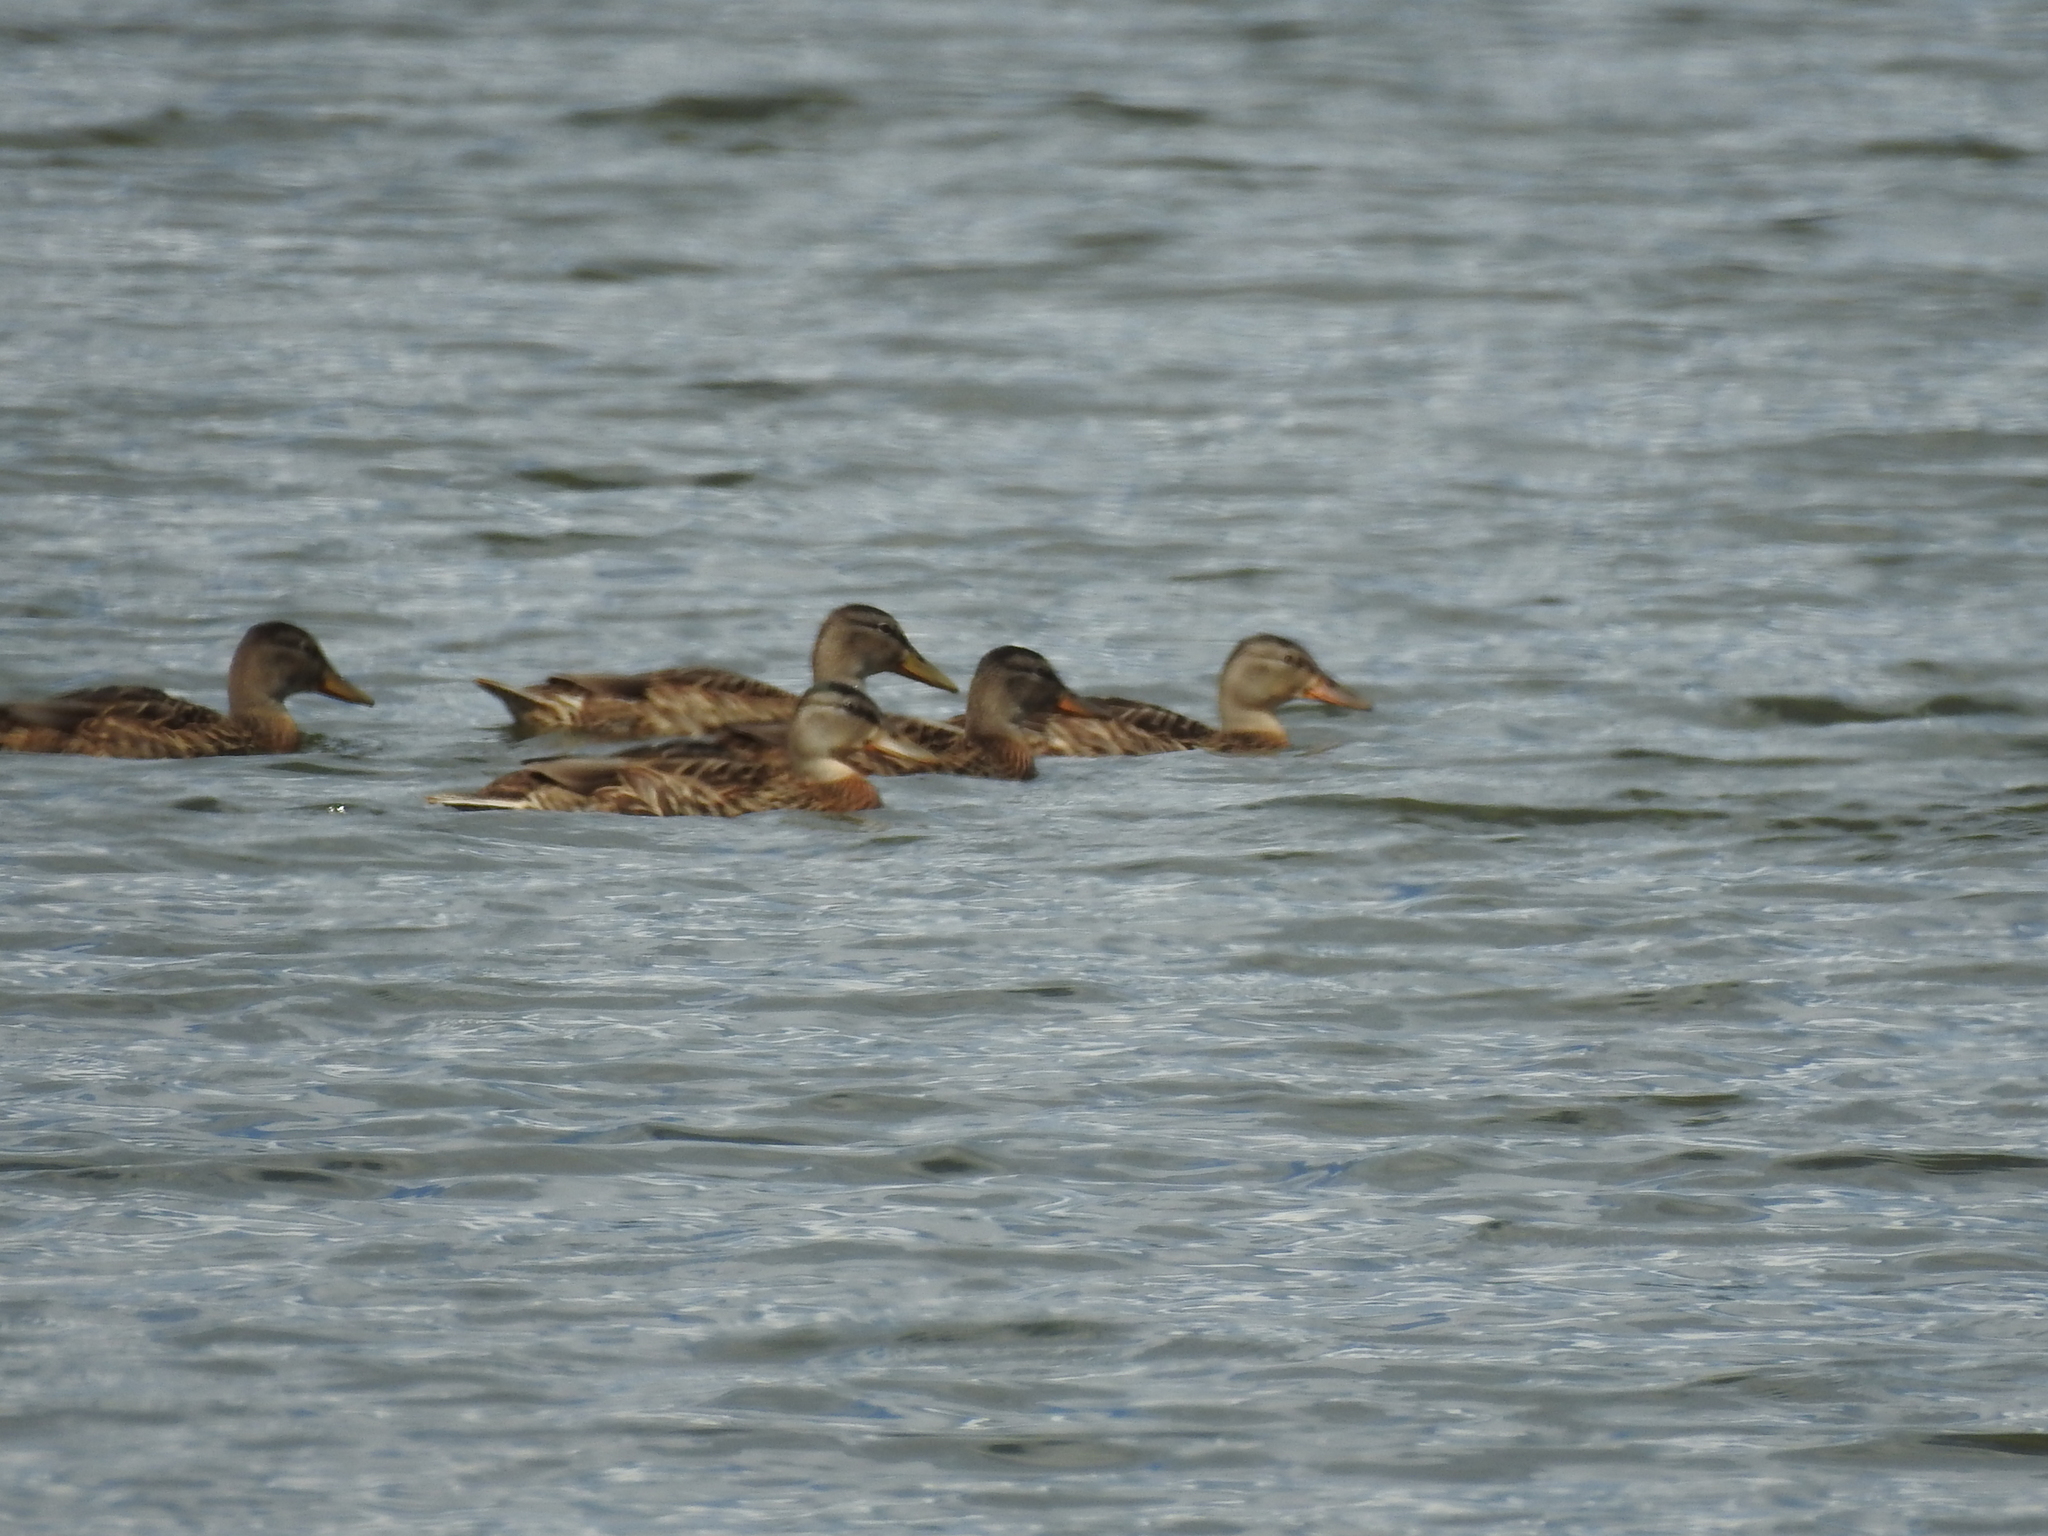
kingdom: Animalia
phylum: Chordata
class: Aves
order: Anseriformes
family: Anatidae
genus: Anas
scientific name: Anas platyrhynchos
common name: Mallard
